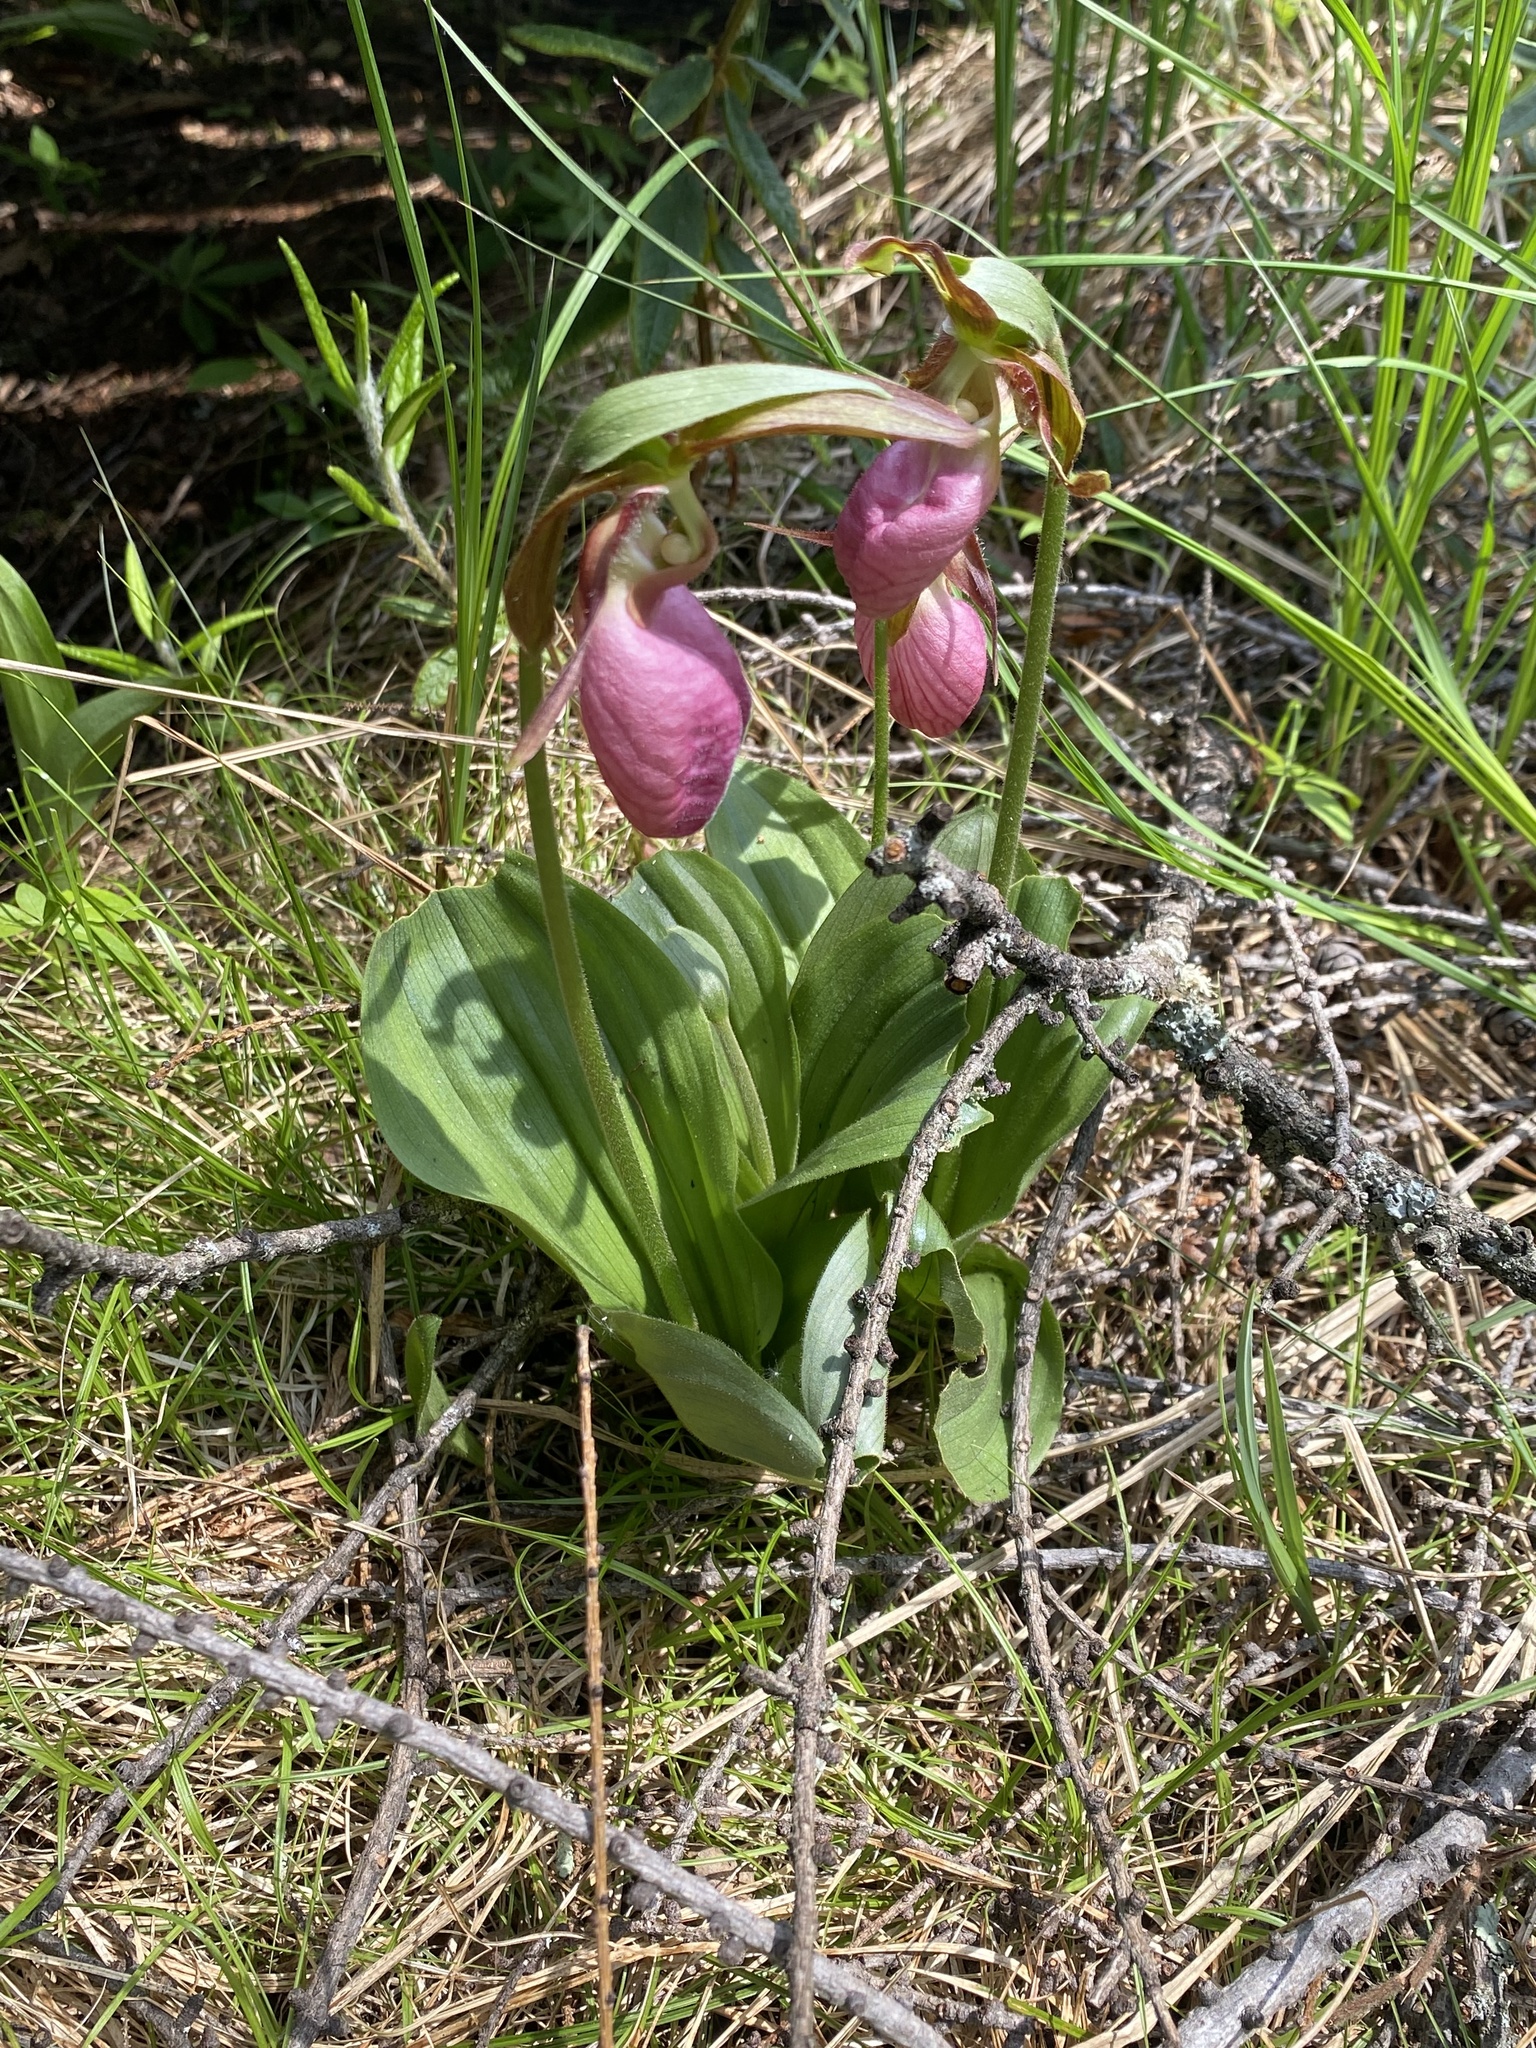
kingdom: Plantae
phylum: Tracheophyta
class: Liliopsida
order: Asparagales
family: Orchidaceae
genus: Cypripedium
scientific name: Cypripedium acaule
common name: Pink lady's-slipper
